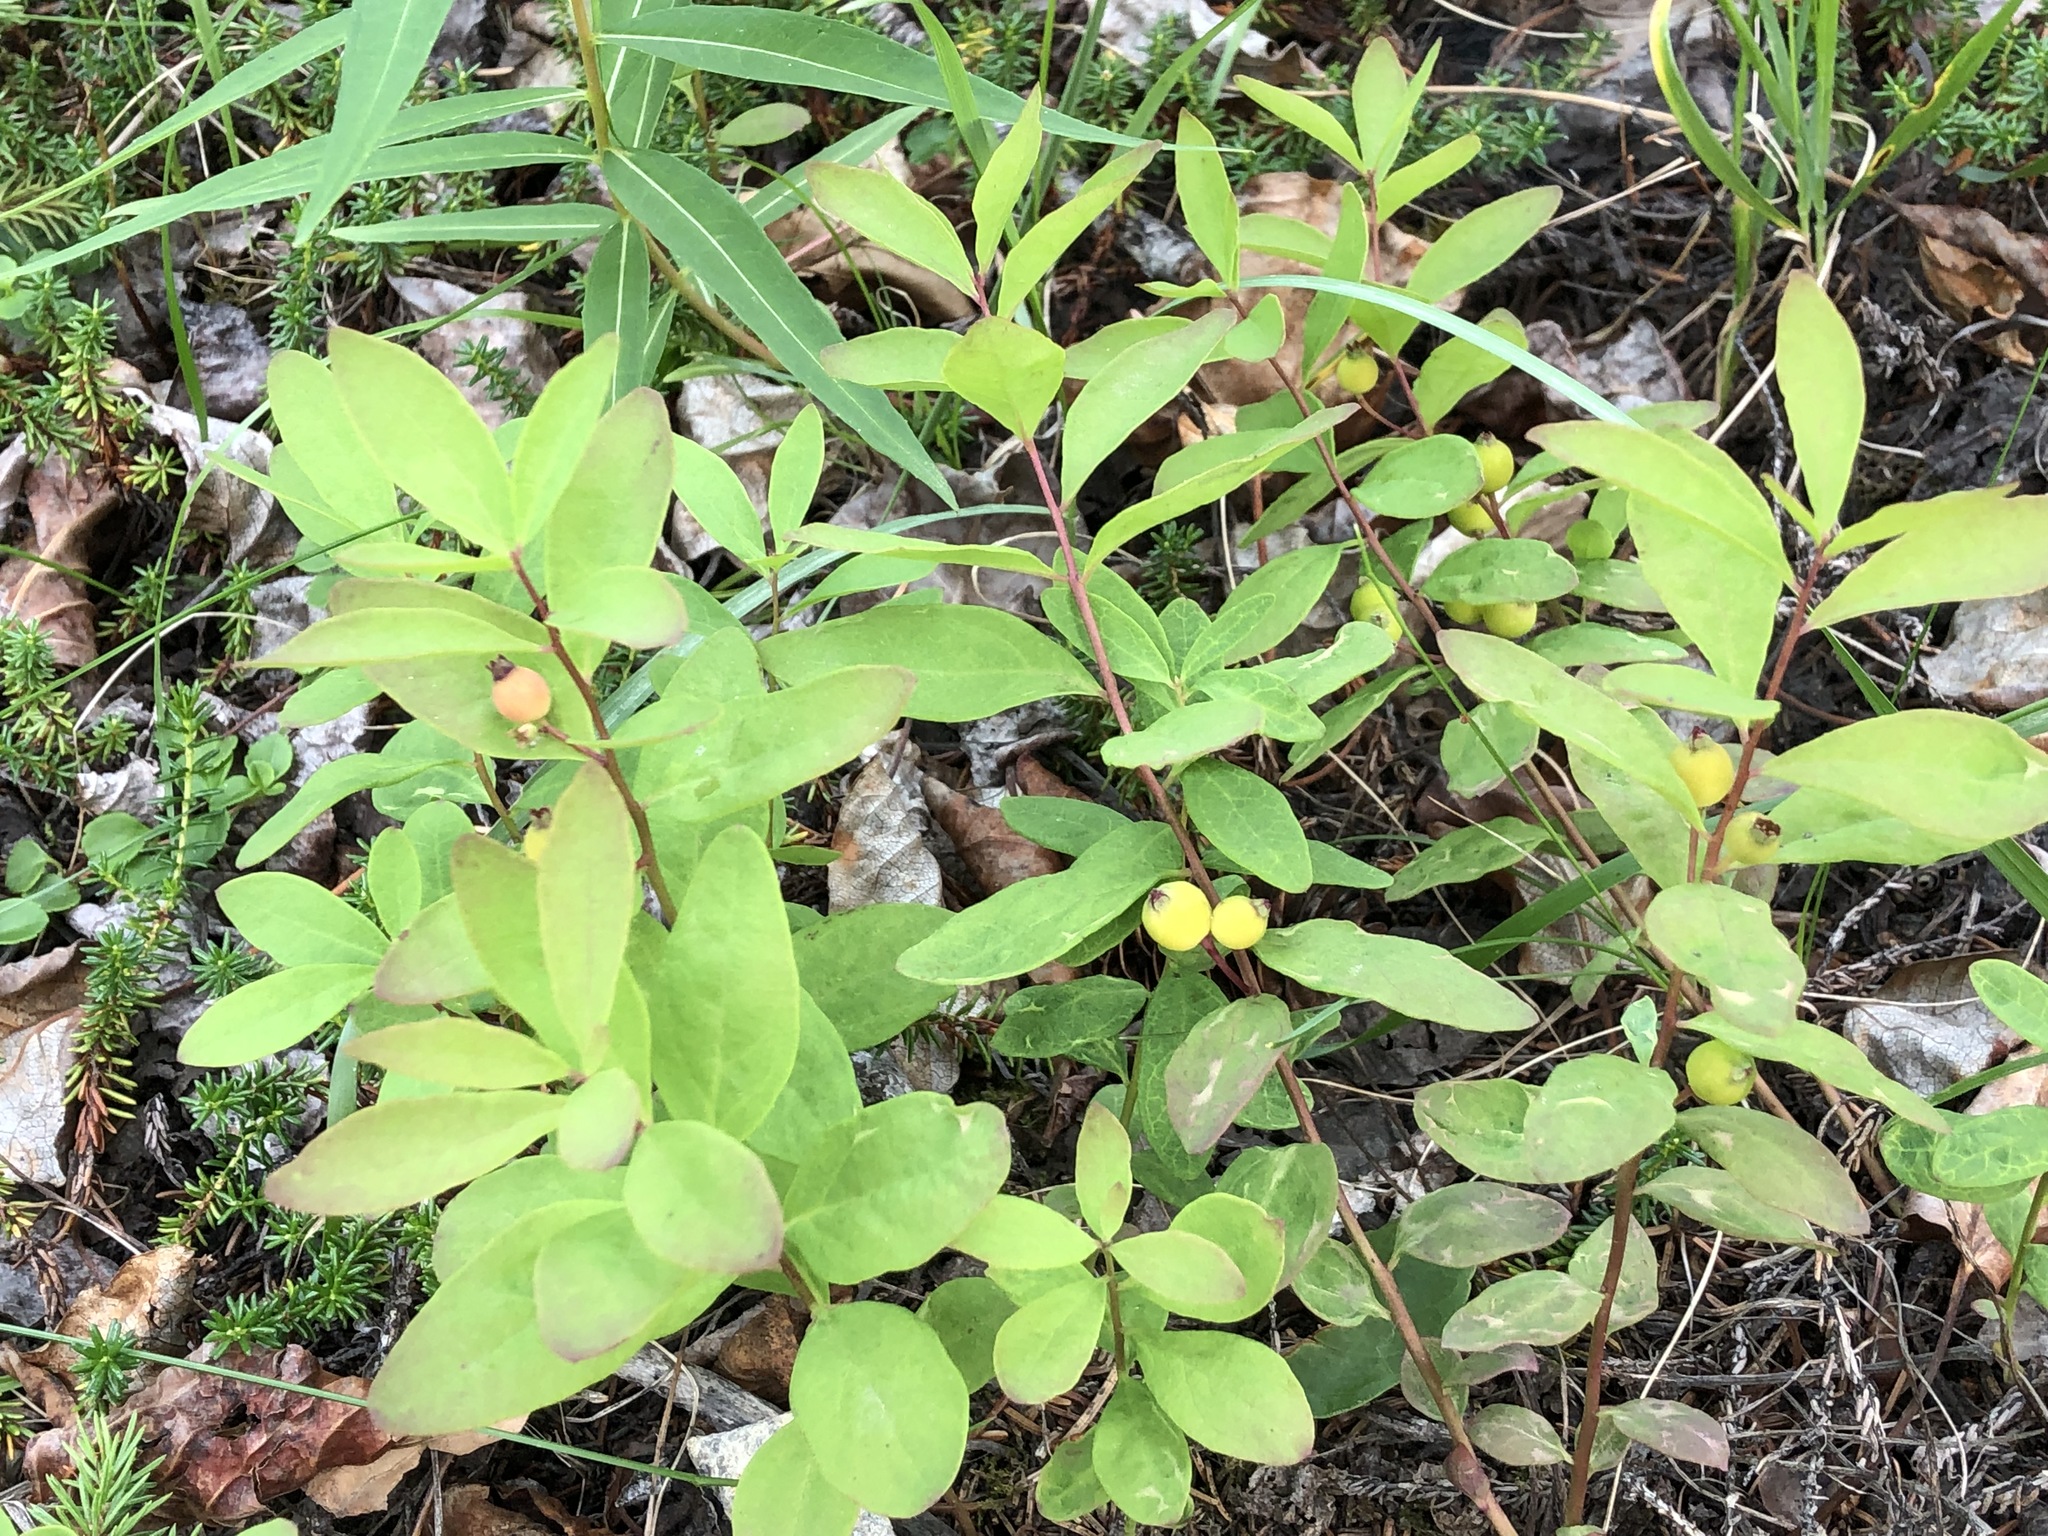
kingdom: Plantae
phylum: Tracheophyta
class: Magnoliopsida
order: Santalales
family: Comandraceae
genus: Geocaulon
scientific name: Geocaulon lividum
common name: Earthberry
